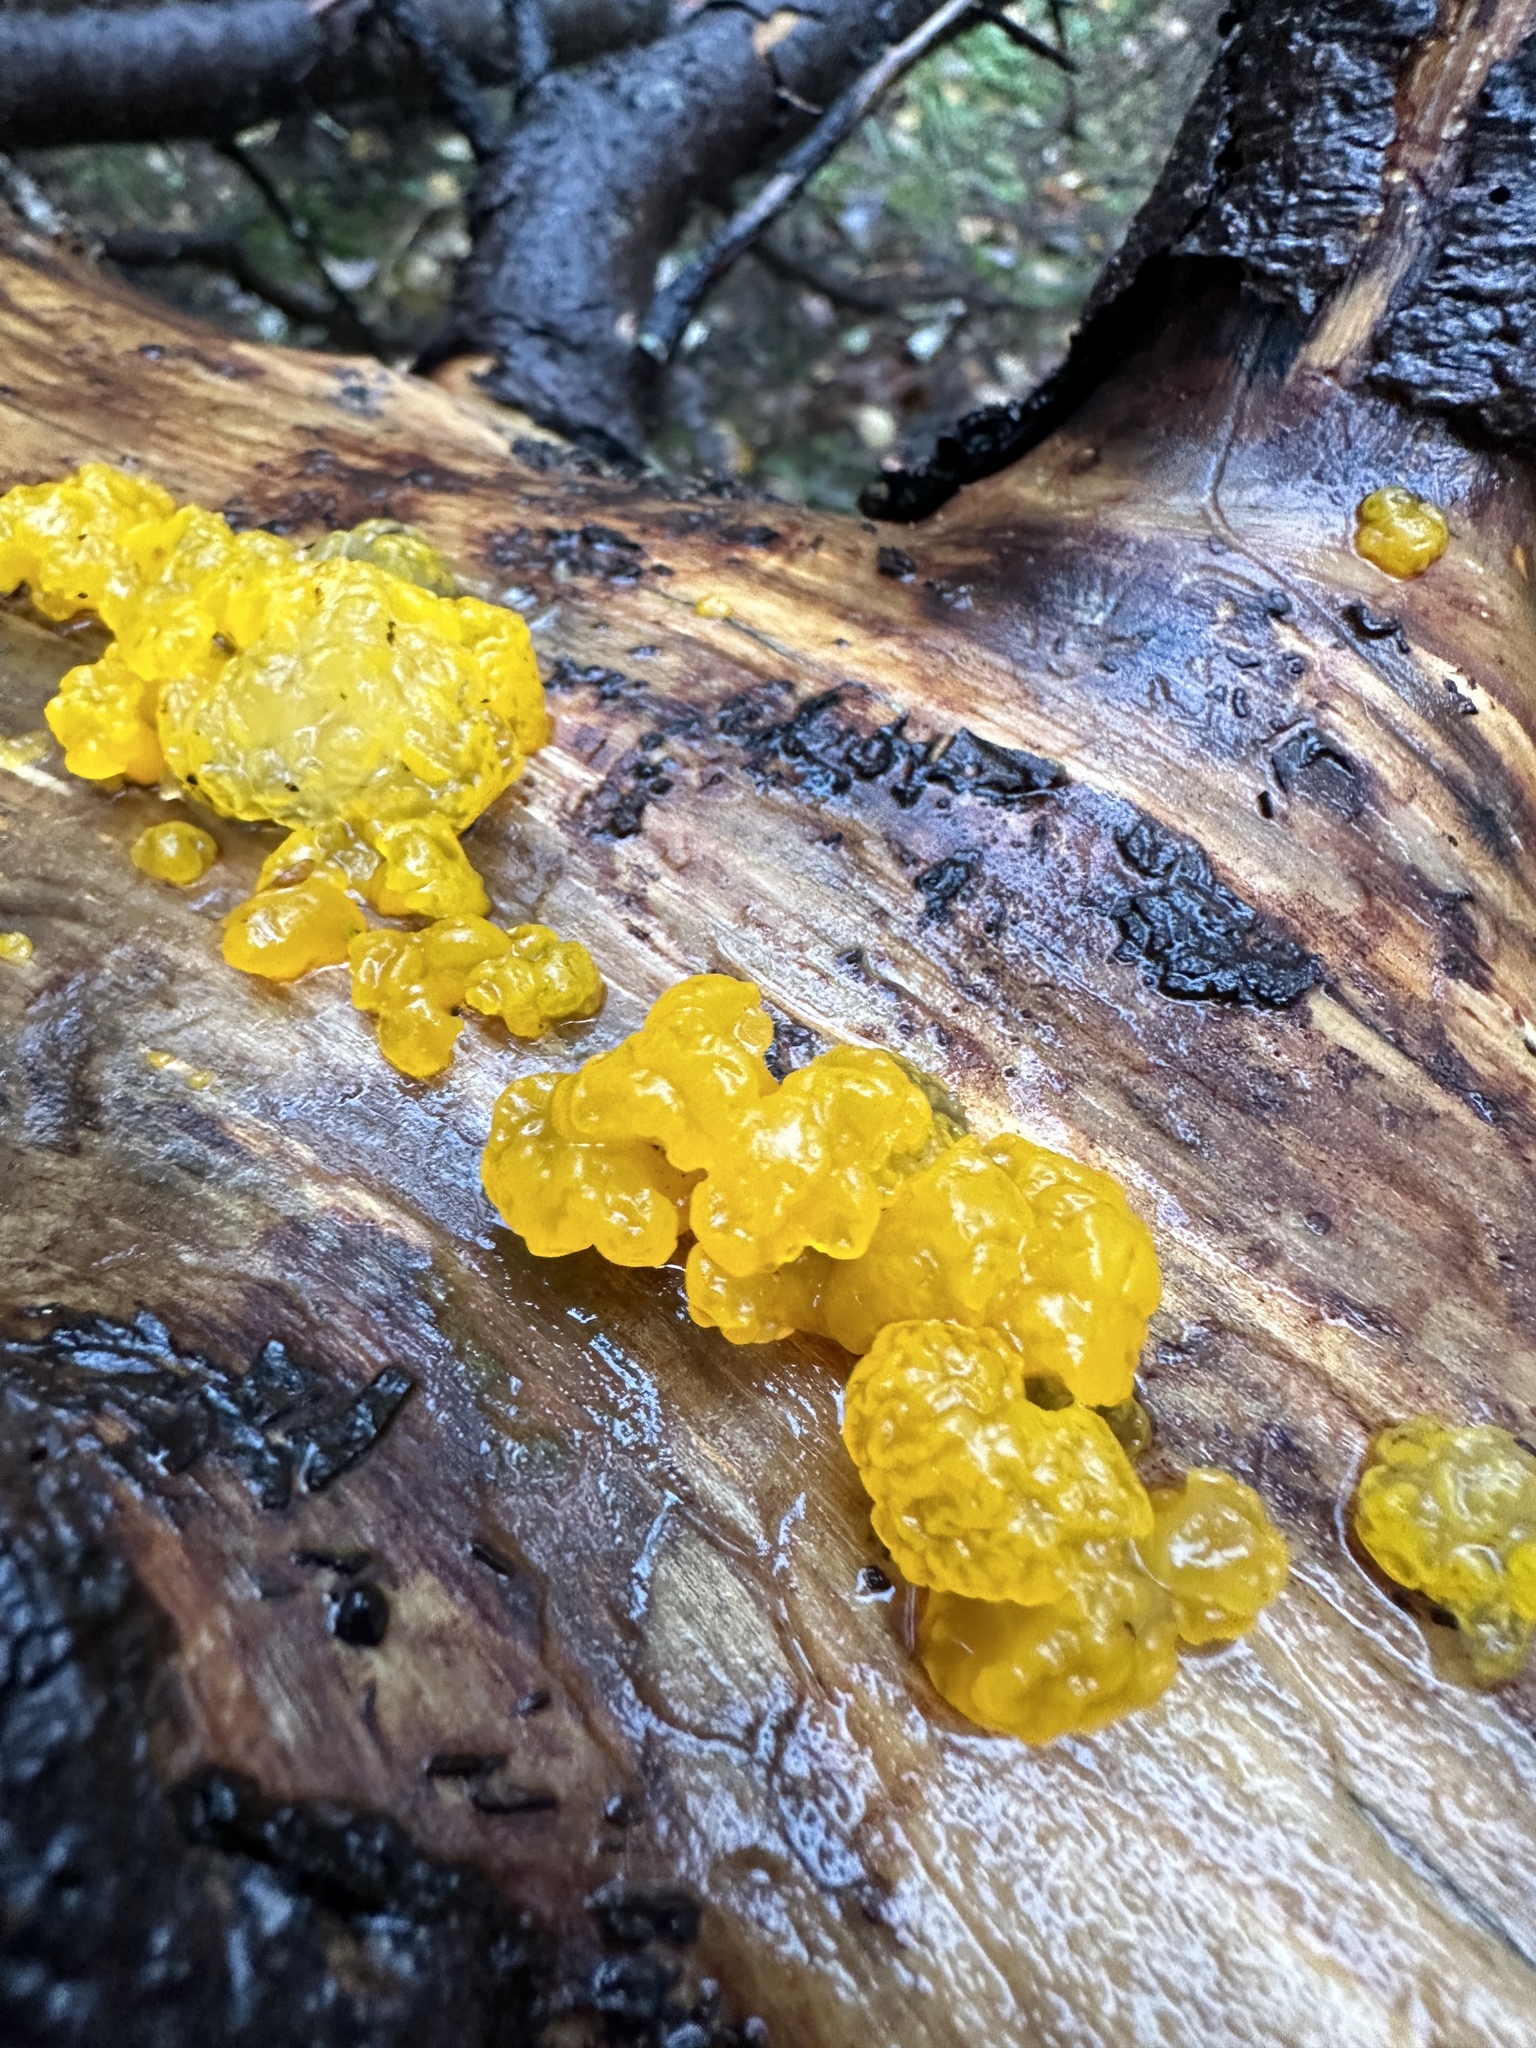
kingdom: Fungi
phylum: Basidiomycota
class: Dacrymycetes
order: Dacrymycetales
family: Dacrymycetaceae
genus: Dacrymyces
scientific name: Dacrymyces chrysospermus
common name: Orange jelly spot
